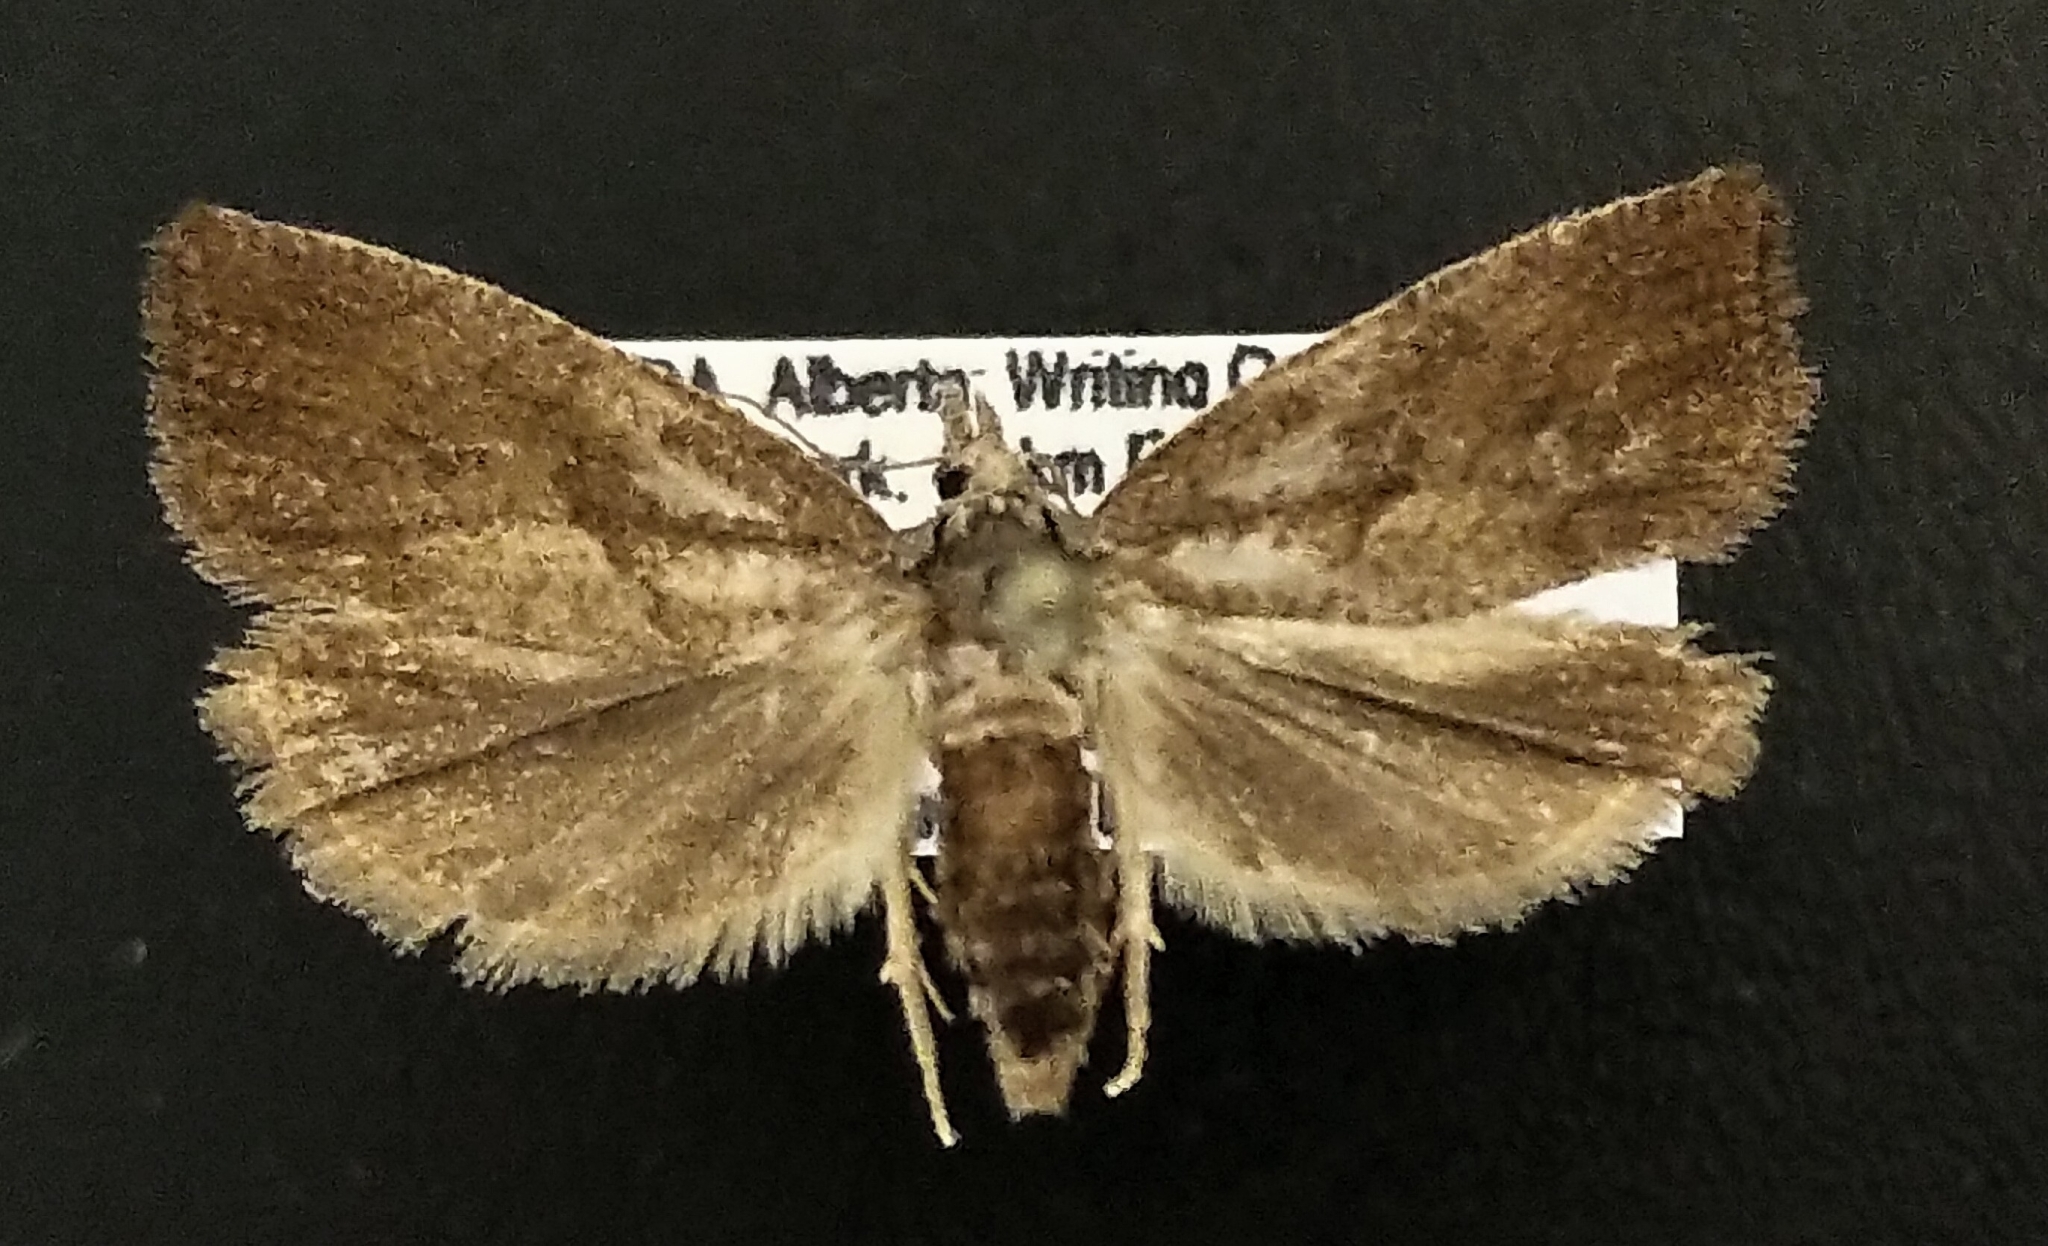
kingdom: Animalia
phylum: Arthropoda
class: Insecta
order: Lepidoptera
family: Tortricidae
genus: Pelochrista
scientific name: Pelochrista nandana
